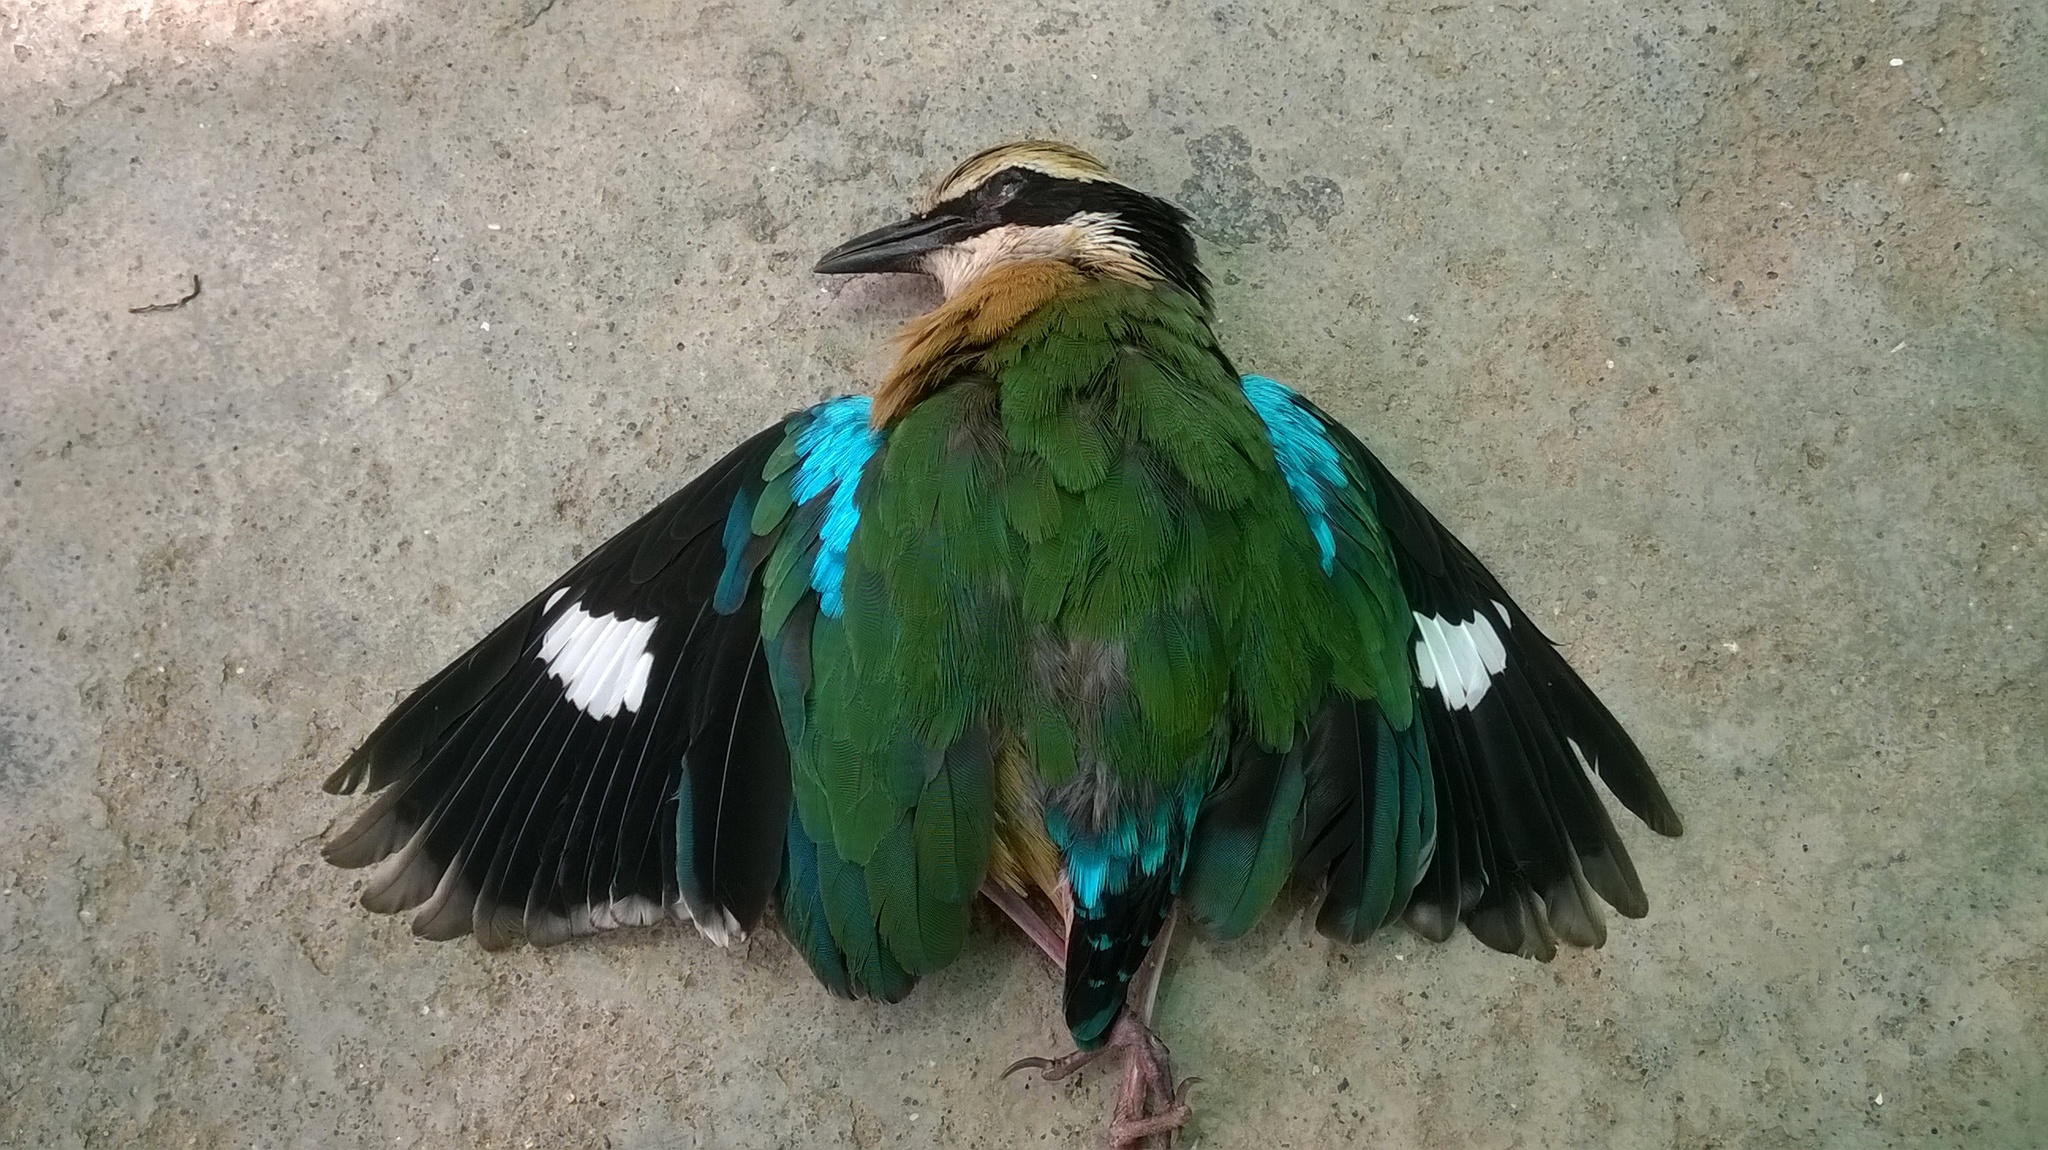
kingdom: Animalia
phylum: Chordata
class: Aves
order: Passeriformes
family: Pittidae
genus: Pitta
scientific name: Pitta brachyura
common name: Indian pitta
